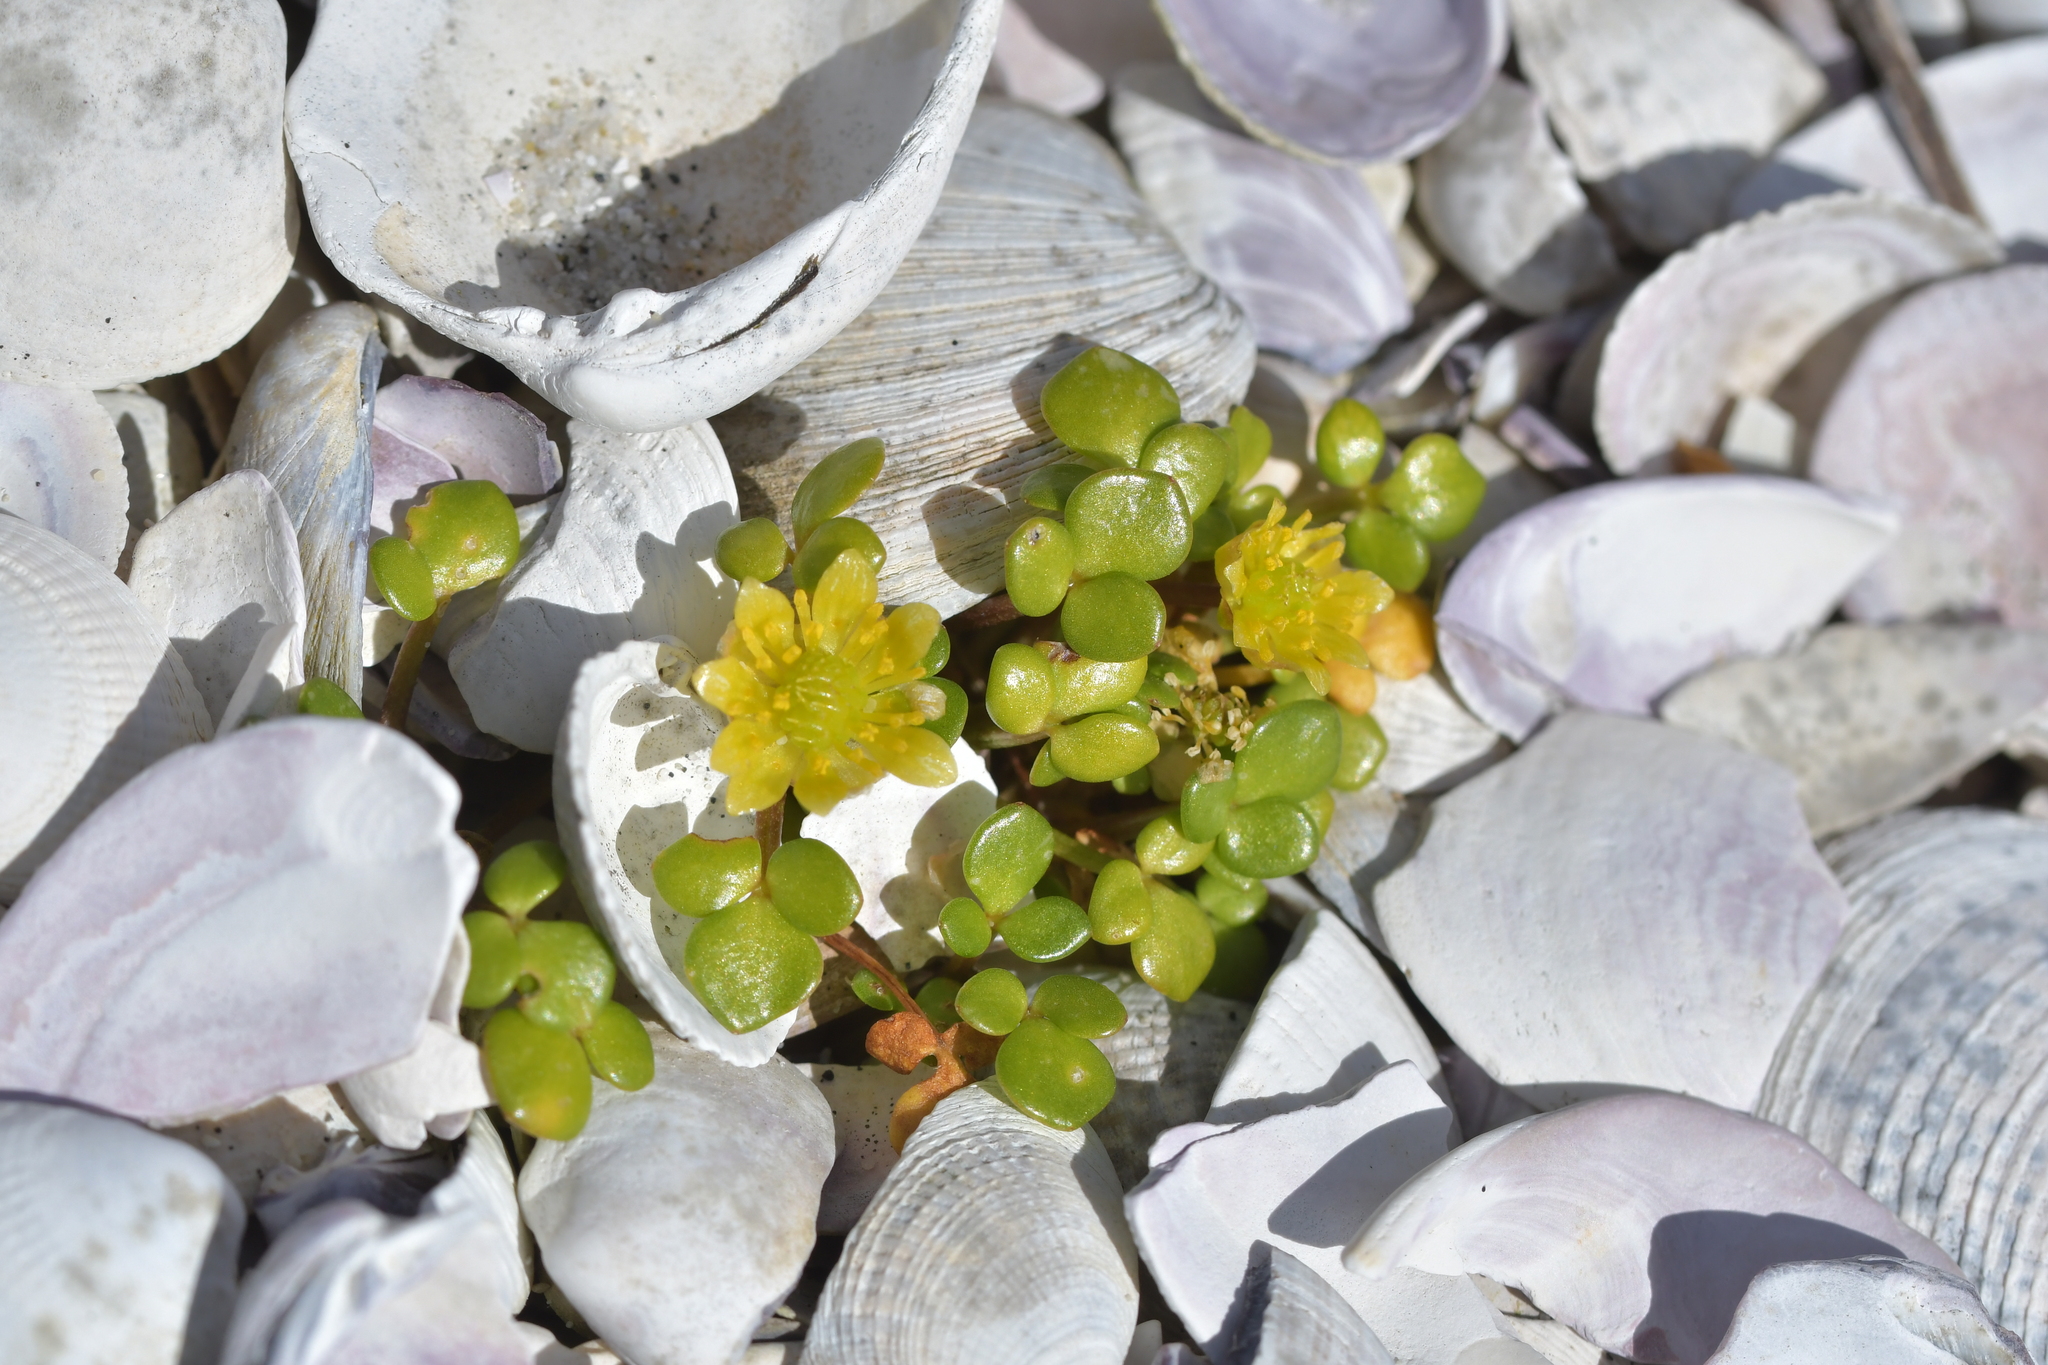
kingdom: Plantae
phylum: Tracheophyta
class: Magnoliopsida
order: Ranunculales
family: Ranunculaceae
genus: Ranunculus
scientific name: Ranunculus acaulis
